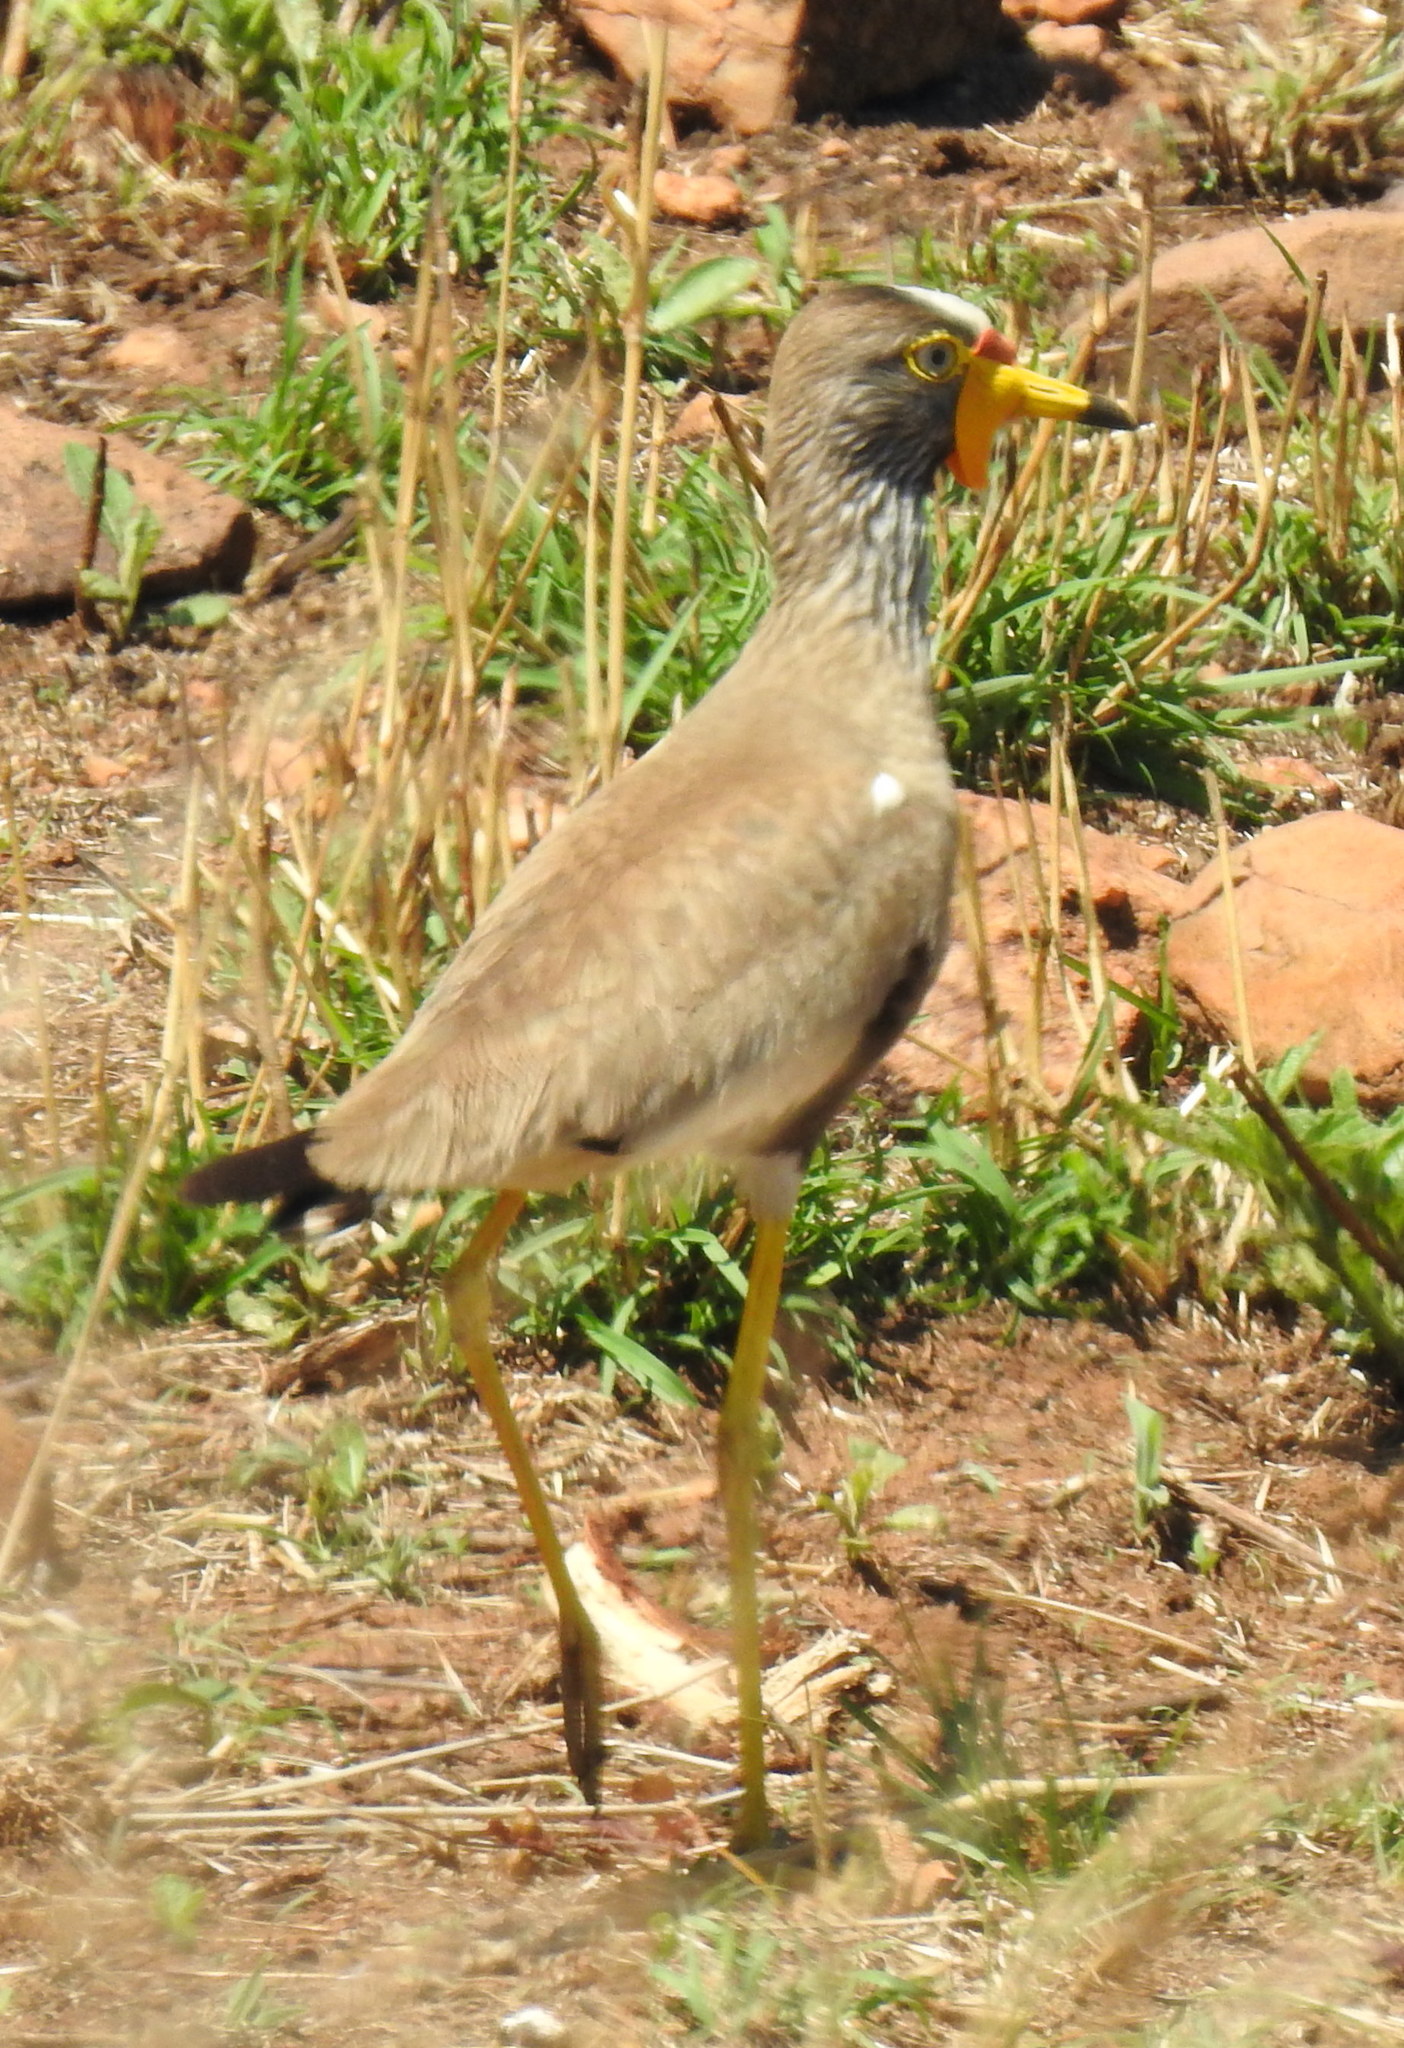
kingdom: Animalia
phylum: Chordata
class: Aves
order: Charadriiformes
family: Charadriidae
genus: Vanellus
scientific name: Vanellus senegallus
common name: African wattled lapwing
